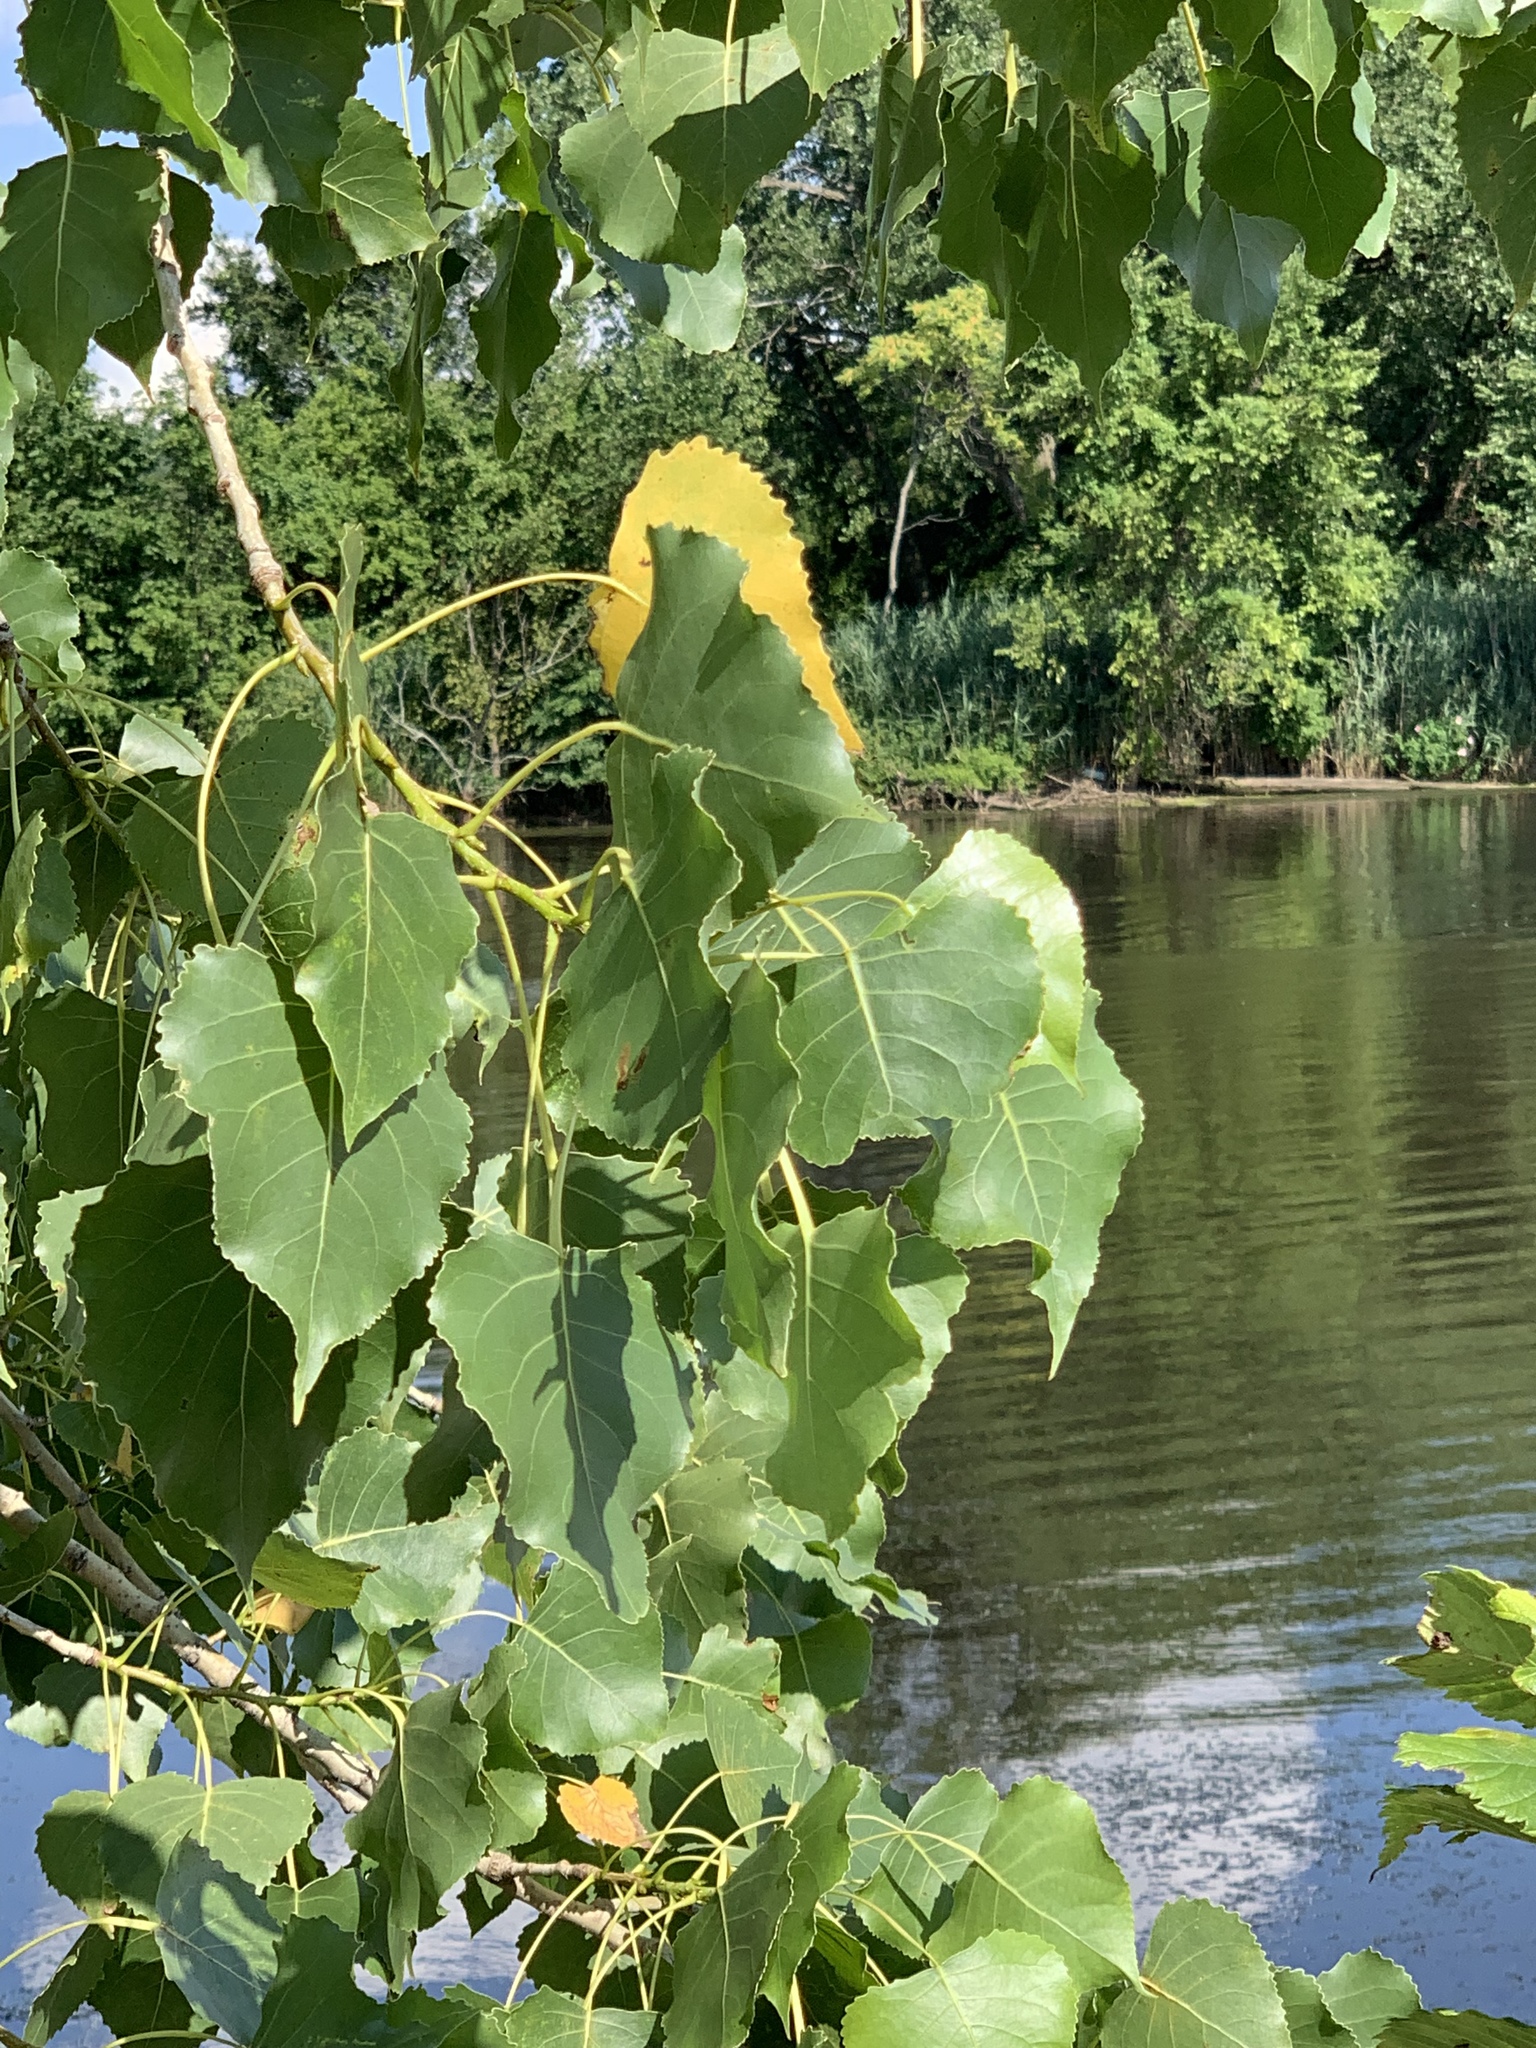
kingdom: Plantae
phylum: Tracheophyta
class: Magnoliopsida
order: Malpighiales
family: Salicaceae
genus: Populus
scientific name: Populus deltoides
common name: Eastern cottonwood
